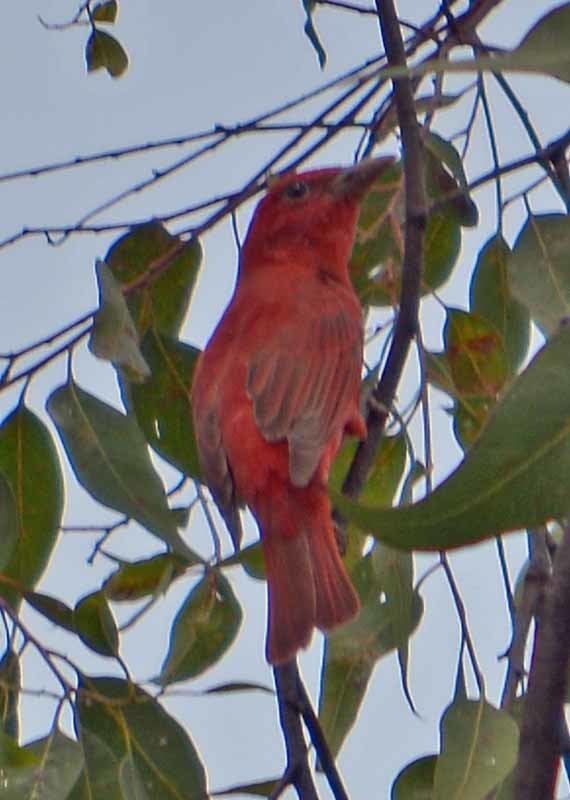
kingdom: Animalia
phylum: Chordata
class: Aves
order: Passeriformes
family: Cardinalidae
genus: Piranga
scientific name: Piranga rubra
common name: Summer tanager
